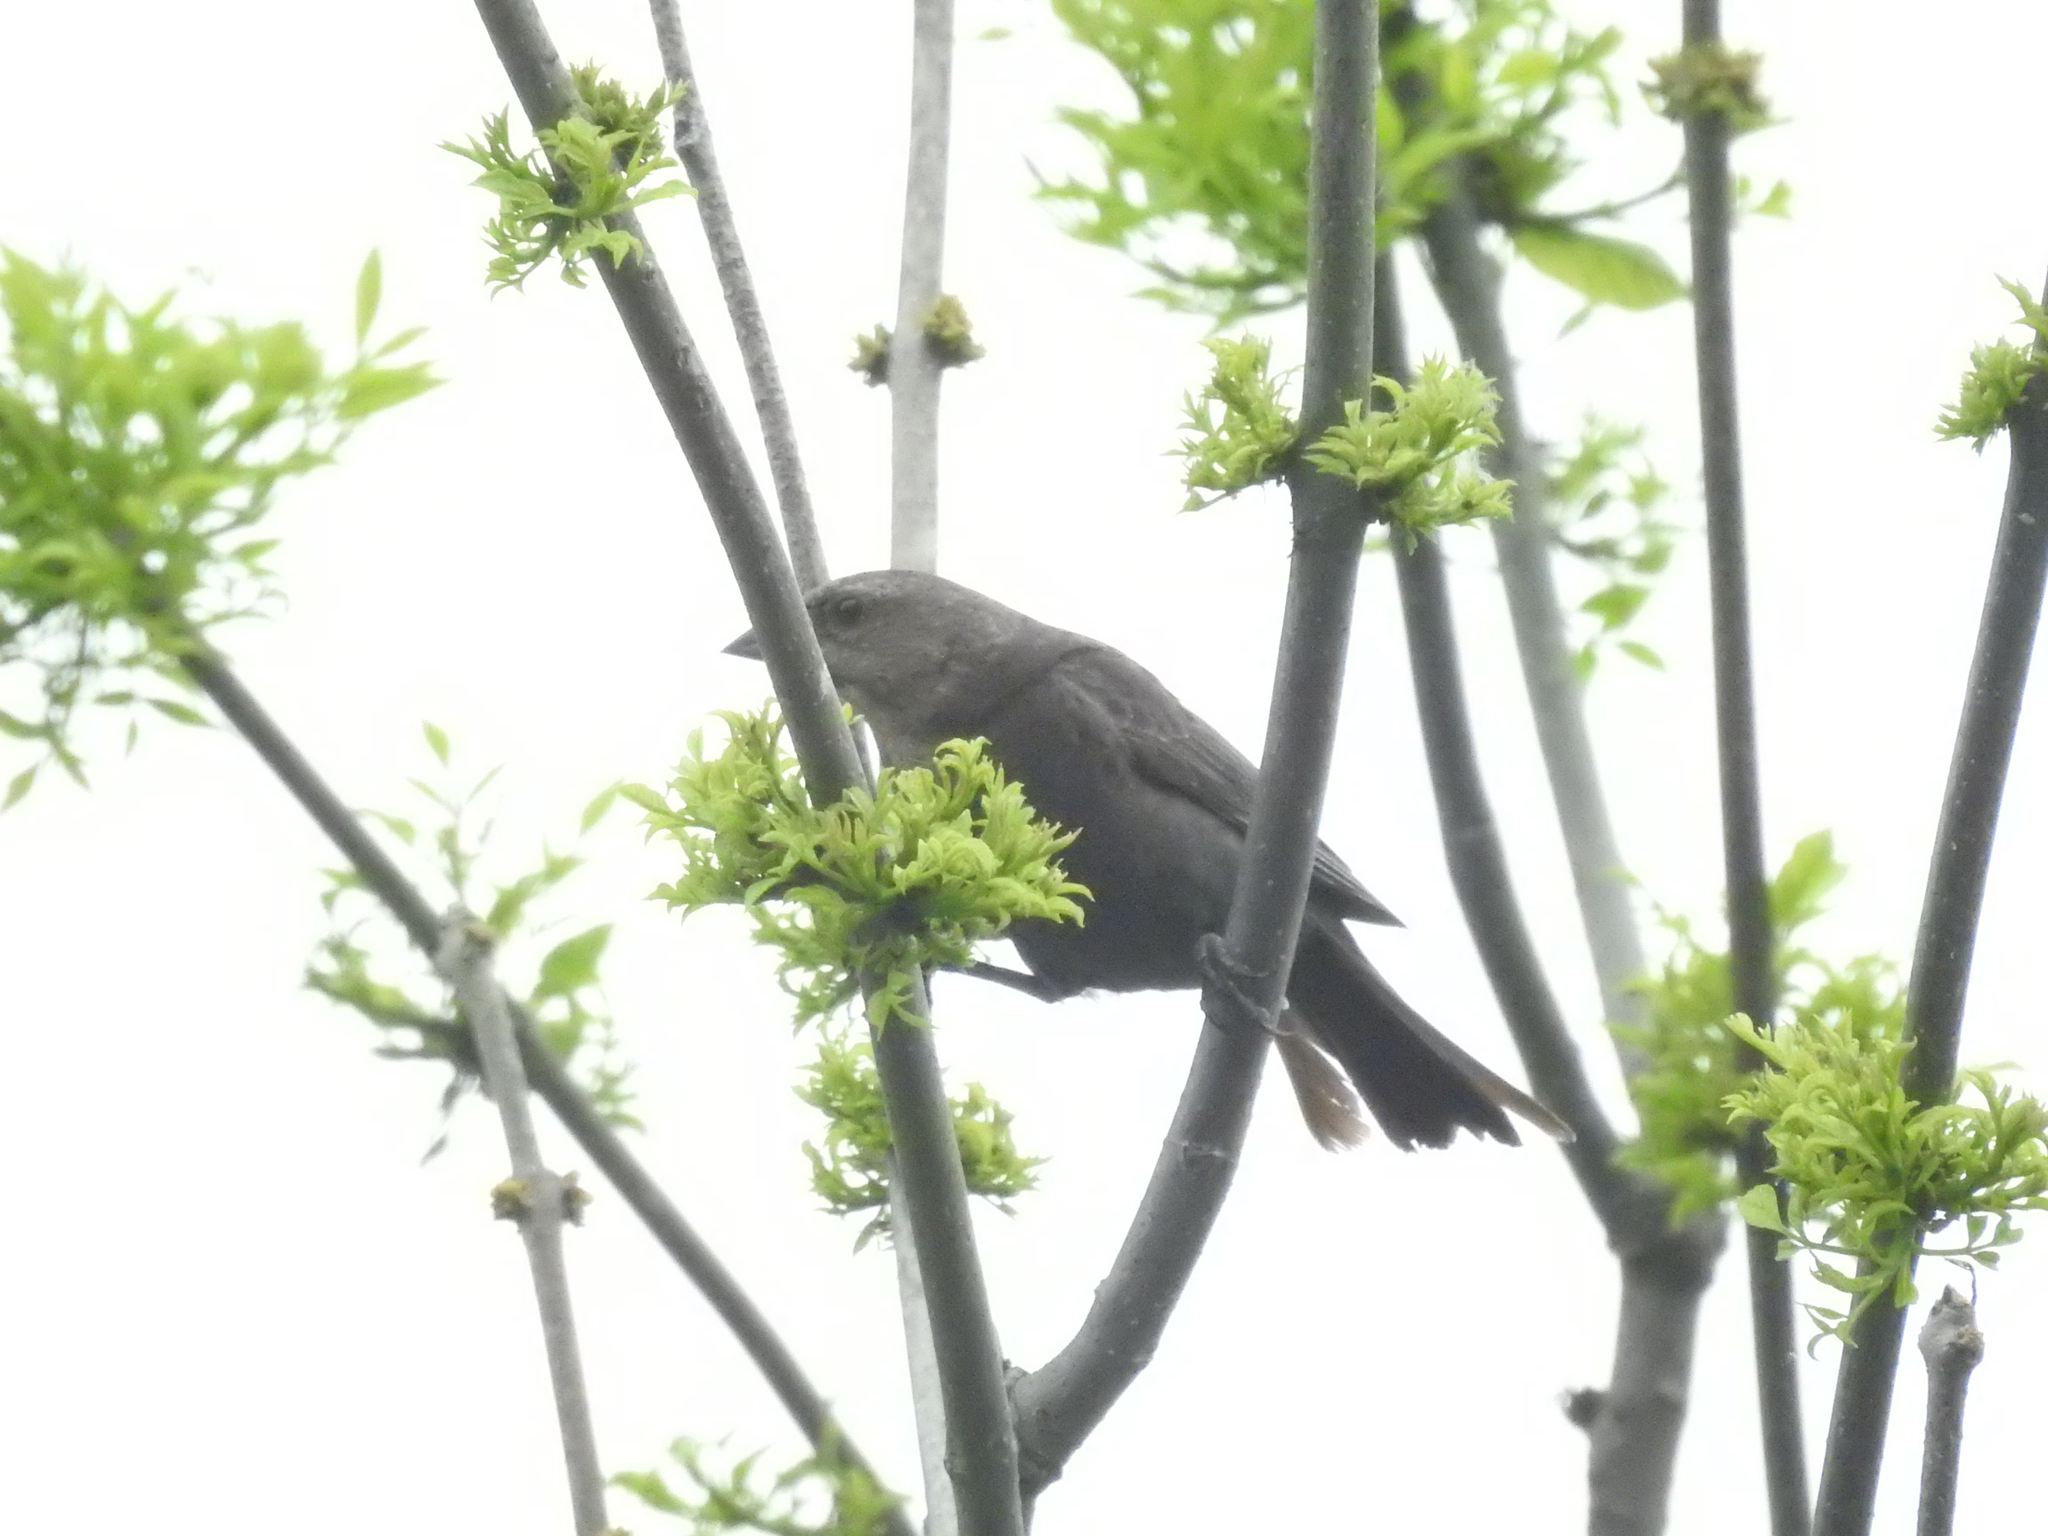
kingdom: Animalia
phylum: Chordata
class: Aves
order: Passeriformes
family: Icteridae
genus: Molothrus
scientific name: Molothrus ater
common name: Brown-headed cowbird
